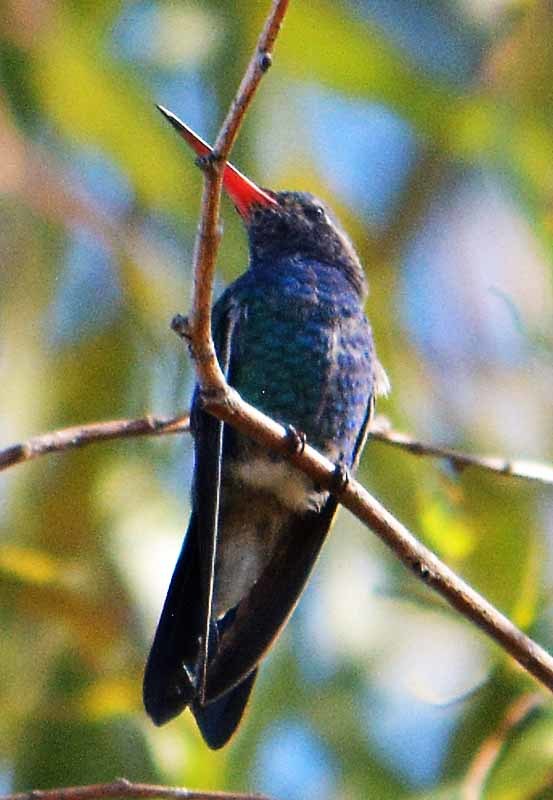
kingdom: Animalia
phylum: Chordata
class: Aves
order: Apodiformes
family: Trochilidae
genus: Cynanthus
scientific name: Cynanthus latirostris
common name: Broad-billed hummingbird
